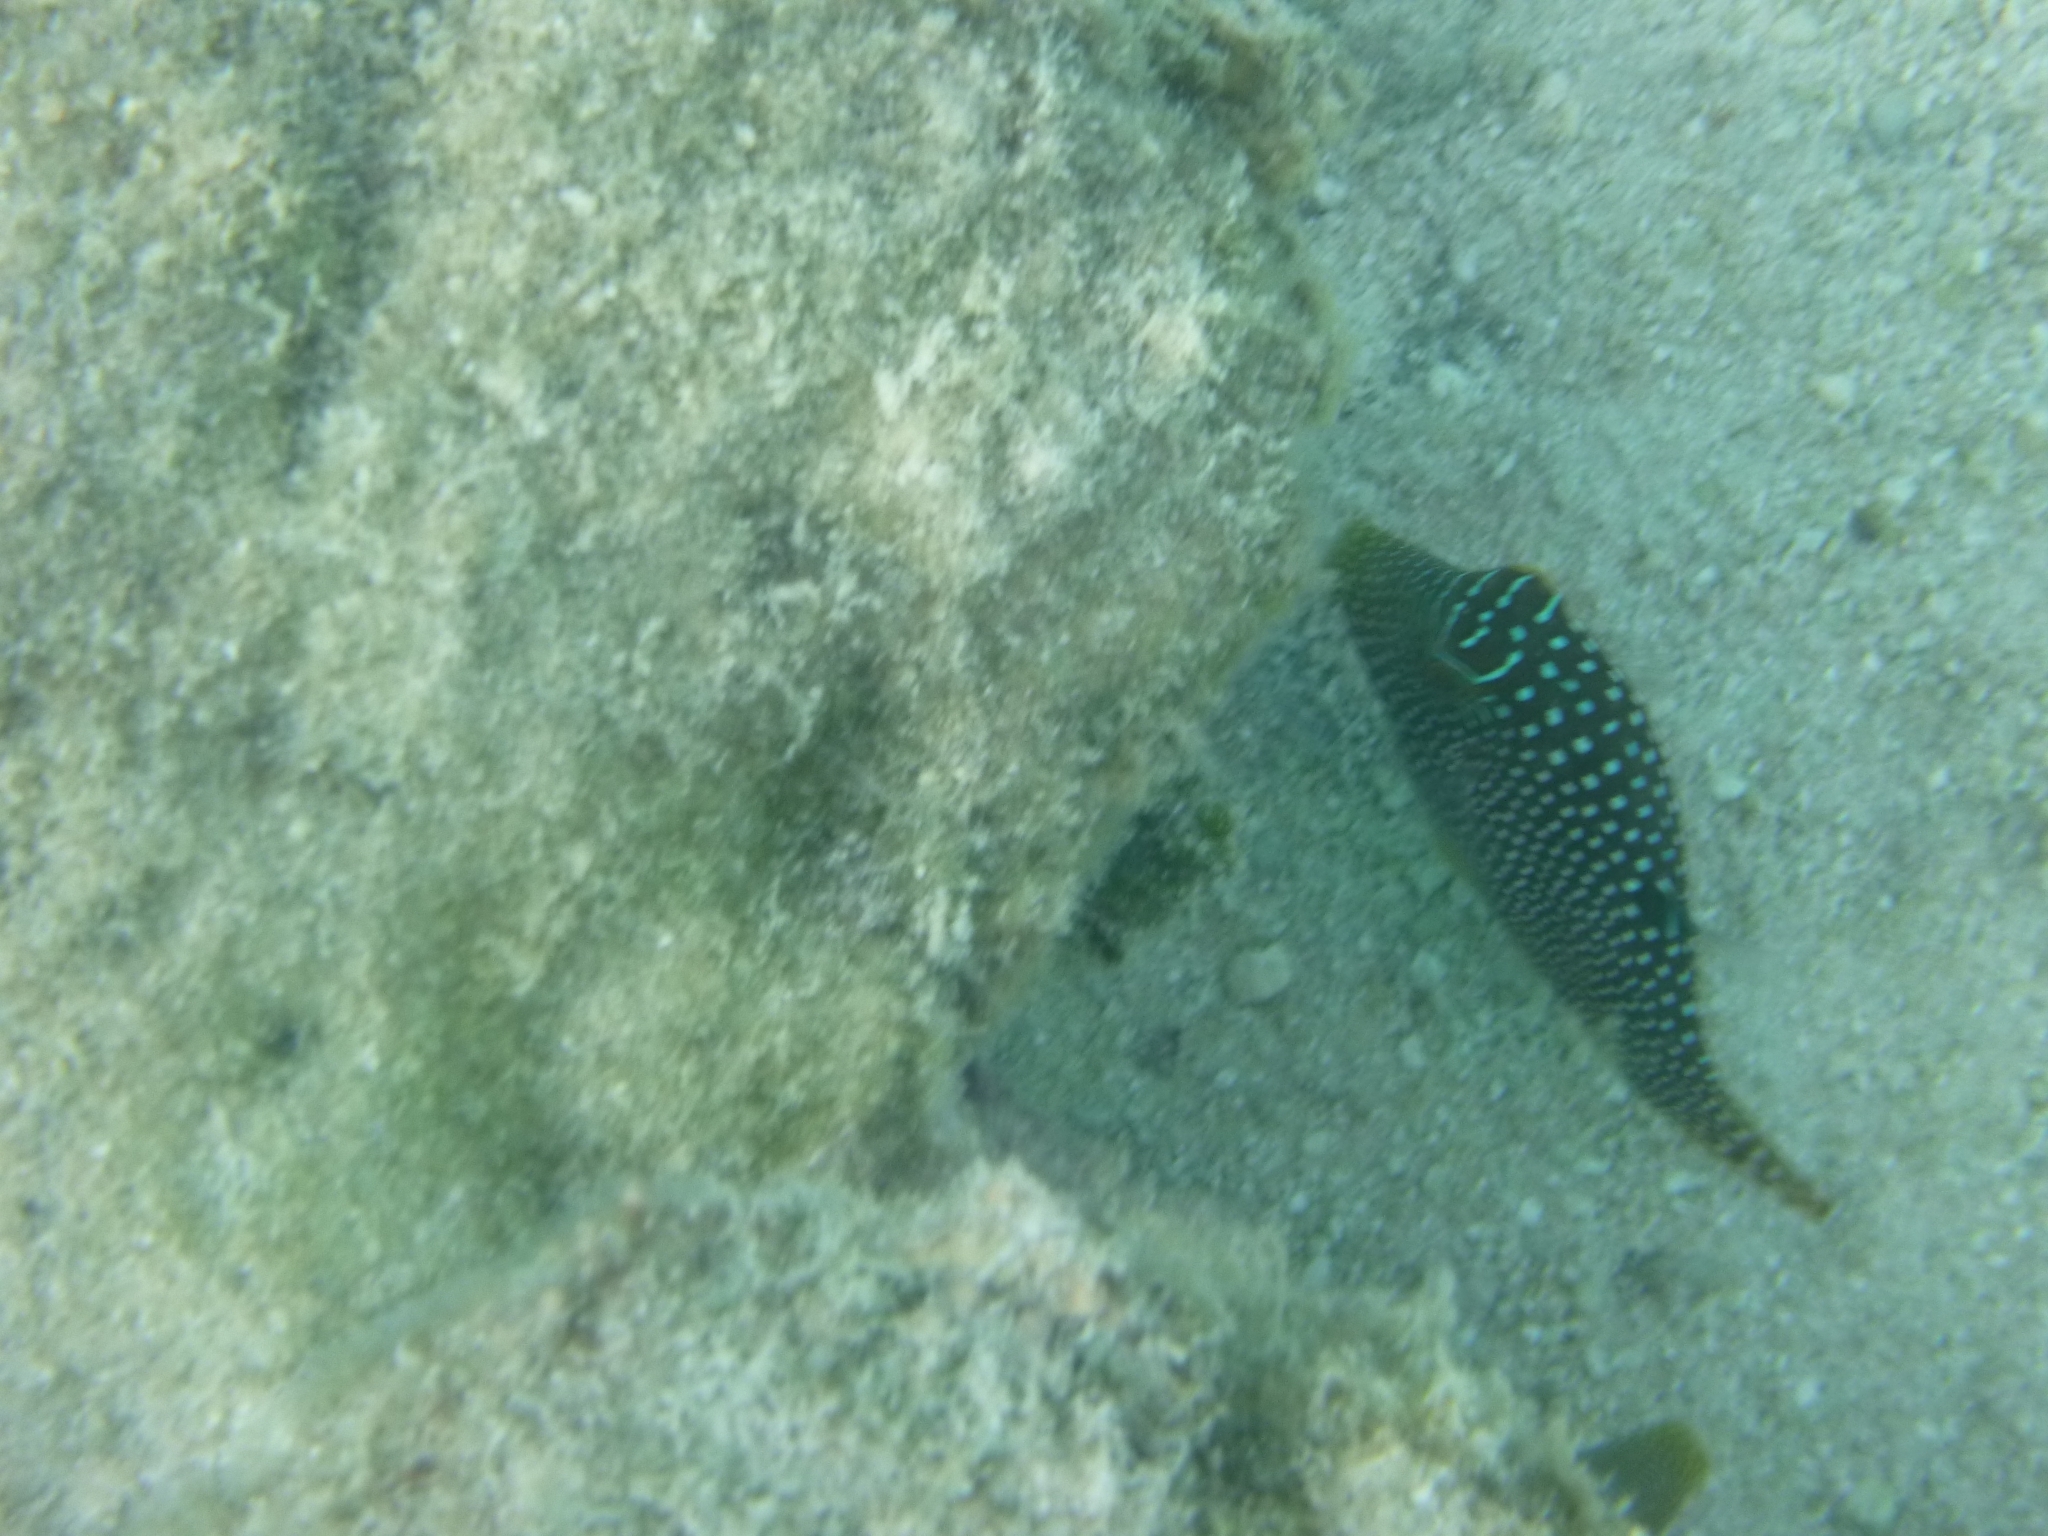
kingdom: Animalia
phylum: Chordata
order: Tetraodontiformes
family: Tetraodontidae
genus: Canthigaster
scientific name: Canthigaster solandri
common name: False-eye toby
